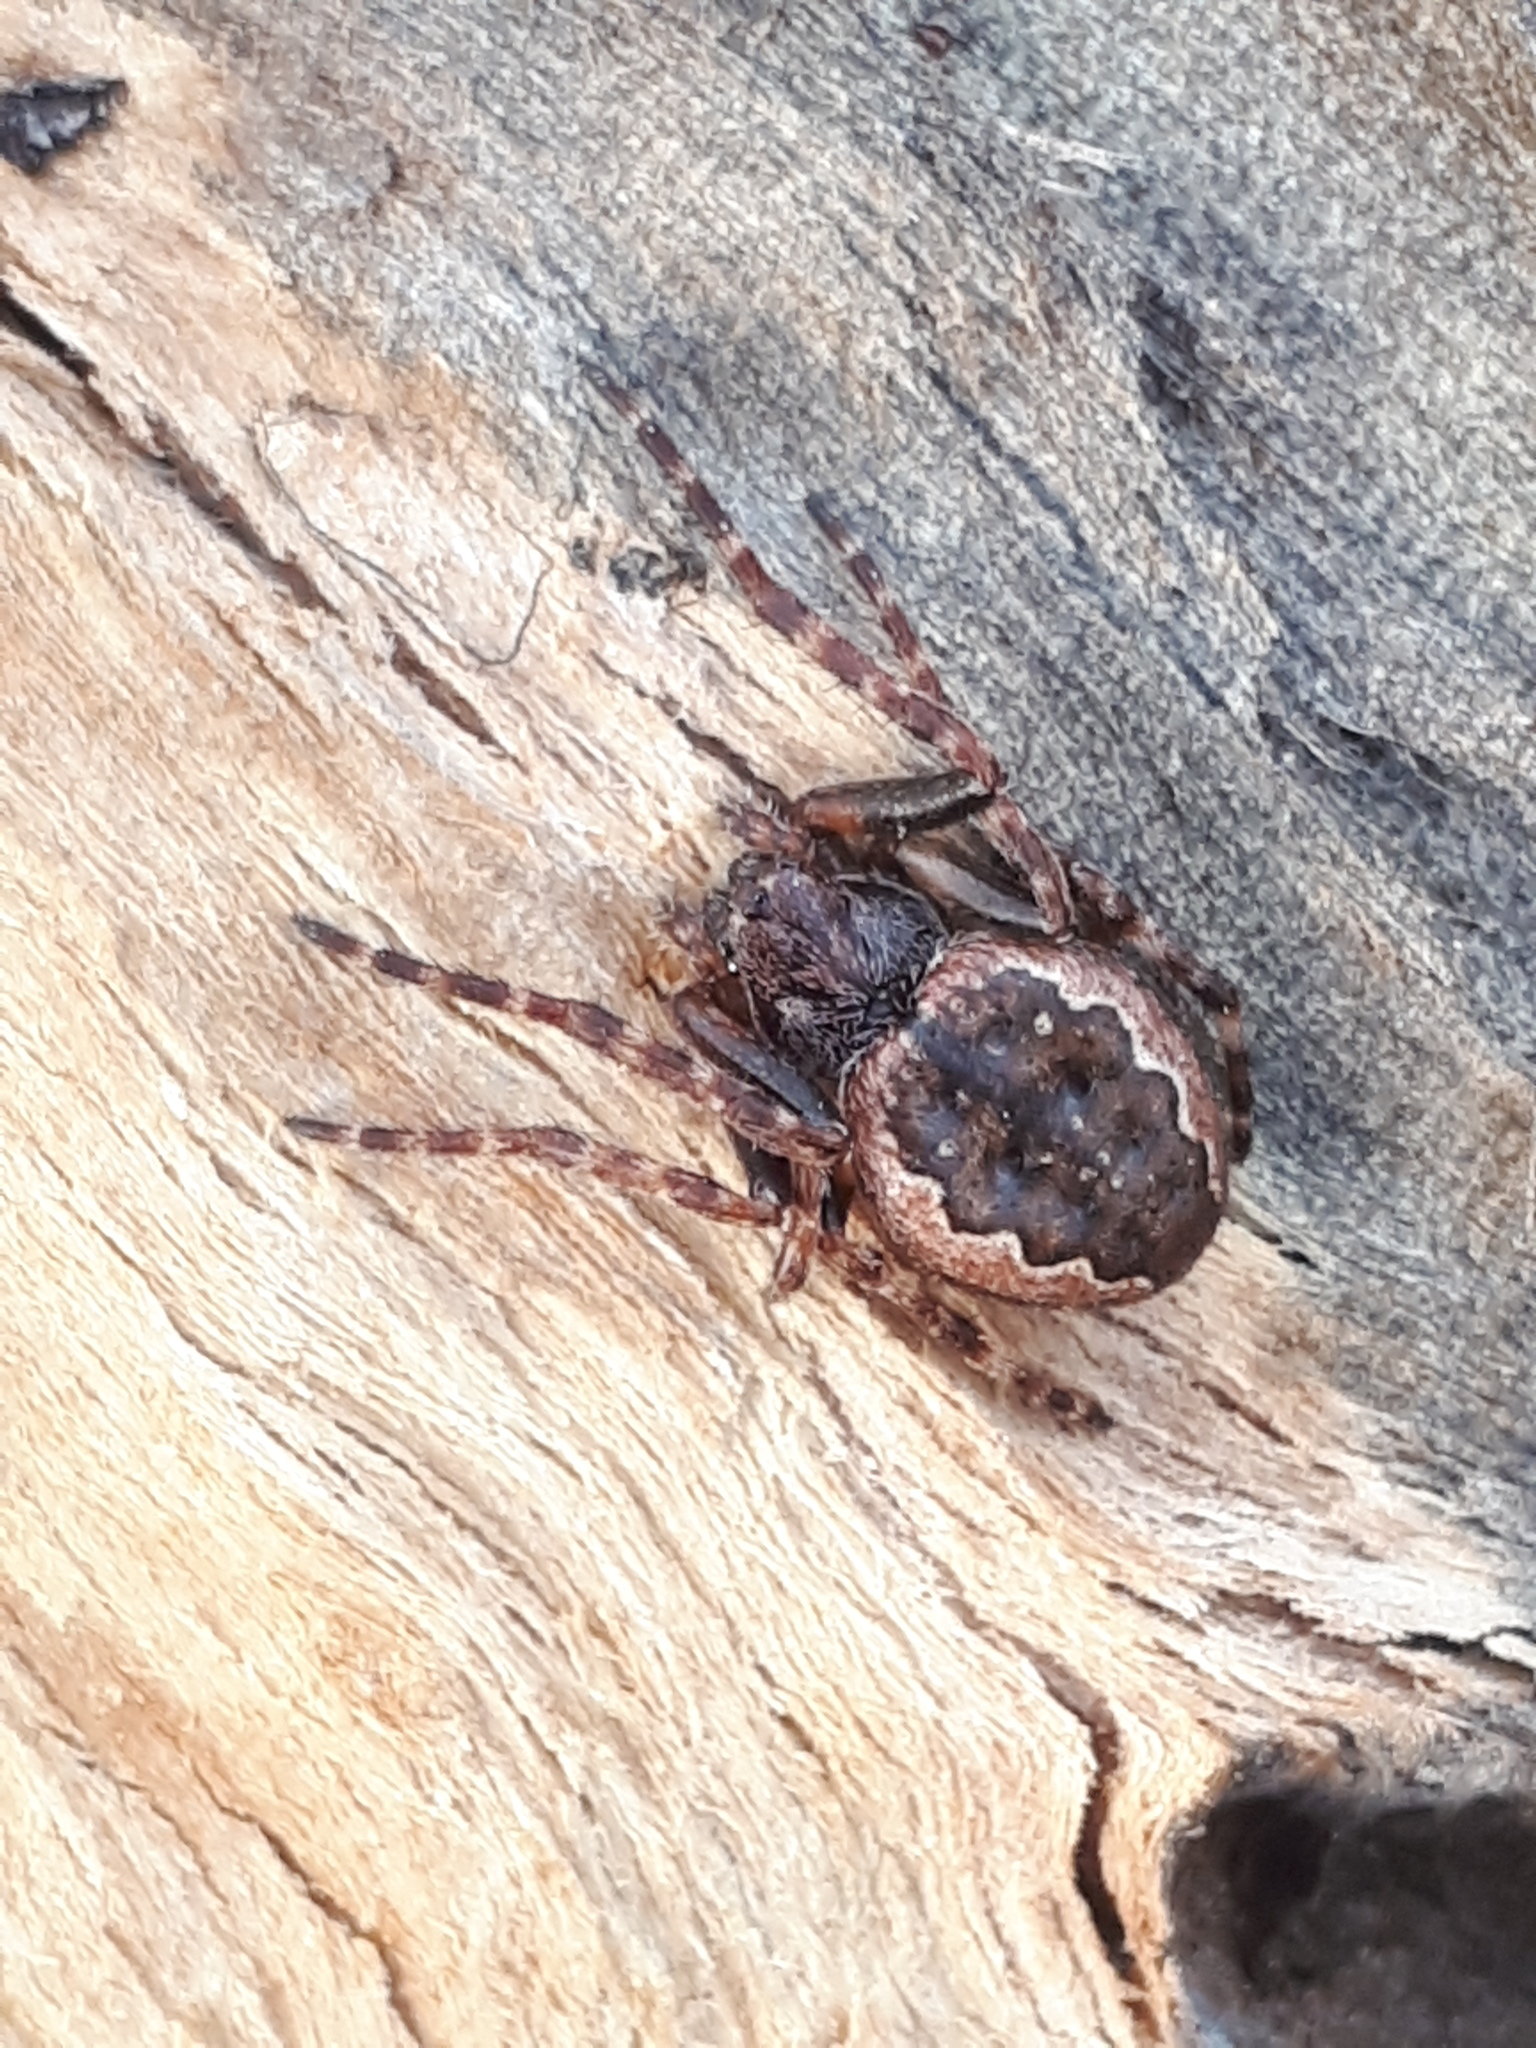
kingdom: Animalia
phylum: Arthropoda
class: Arachnida
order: Araneae
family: Araneidae
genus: Nuctenea
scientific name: Nuctenea umbratica
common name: Toad spider
